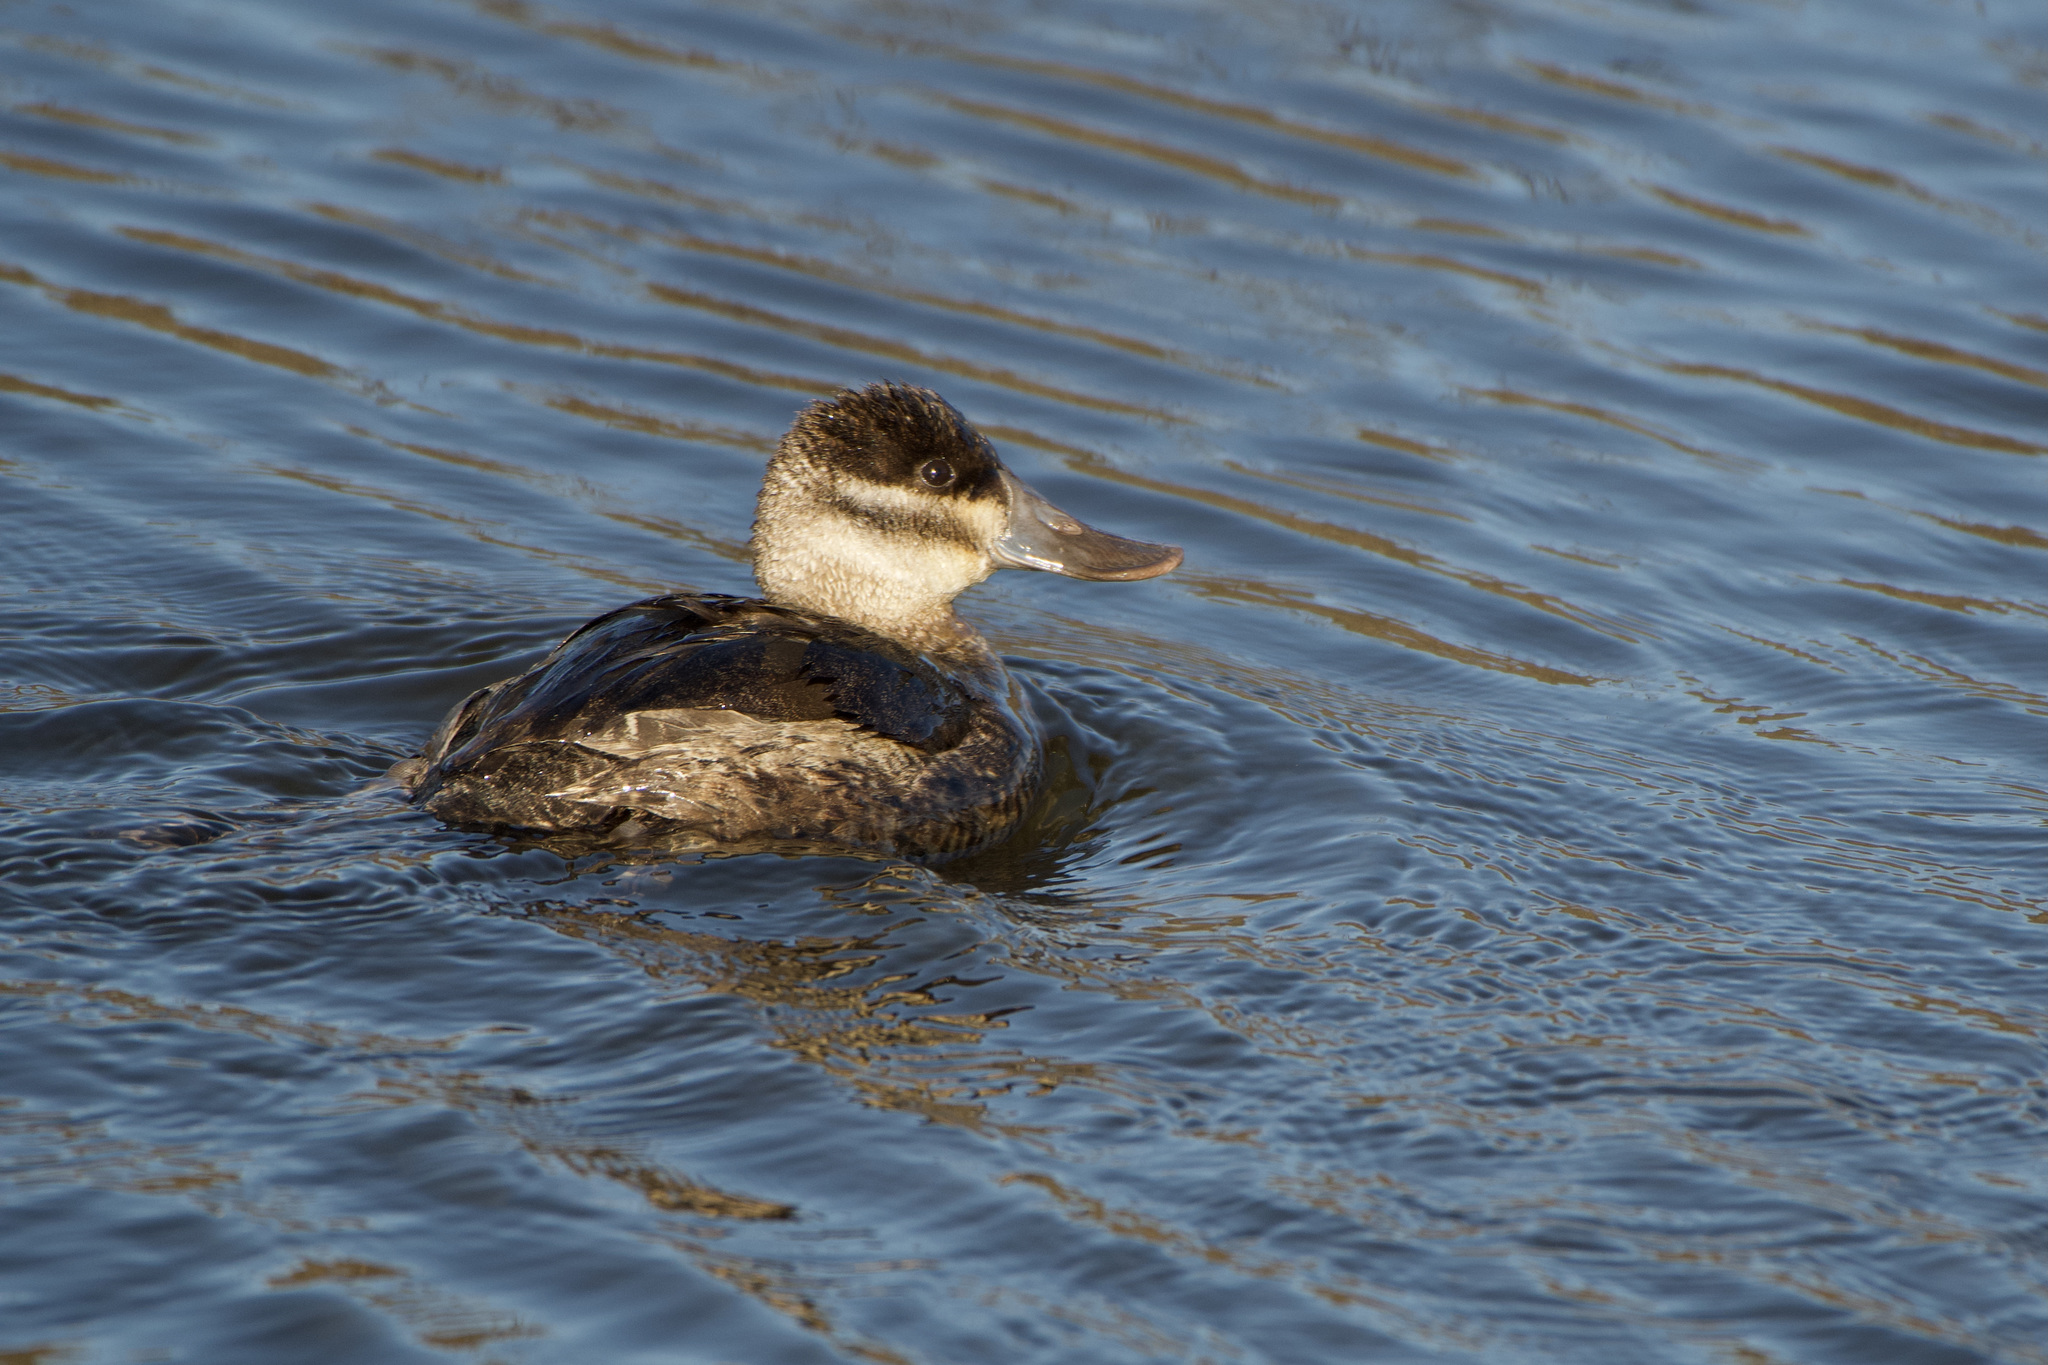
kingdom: Animalia
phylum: Chordata
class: Aves
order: Anseriformes
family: Anatidae
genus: Oxyura
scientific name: Oxyura jamaicensis
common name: Ruddy duck
